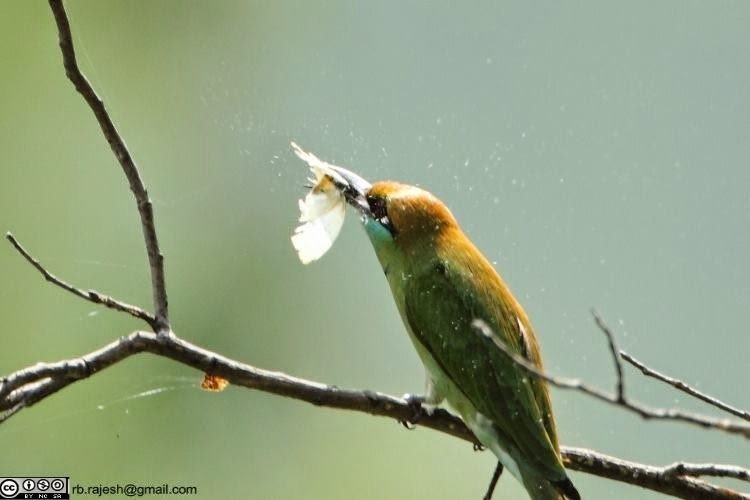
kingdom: Animalia
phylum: Chordata
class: Aves
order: Coraciiformes
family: Meropidae
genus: Merops
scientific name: Merops orientalis
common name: Green bee-eater
